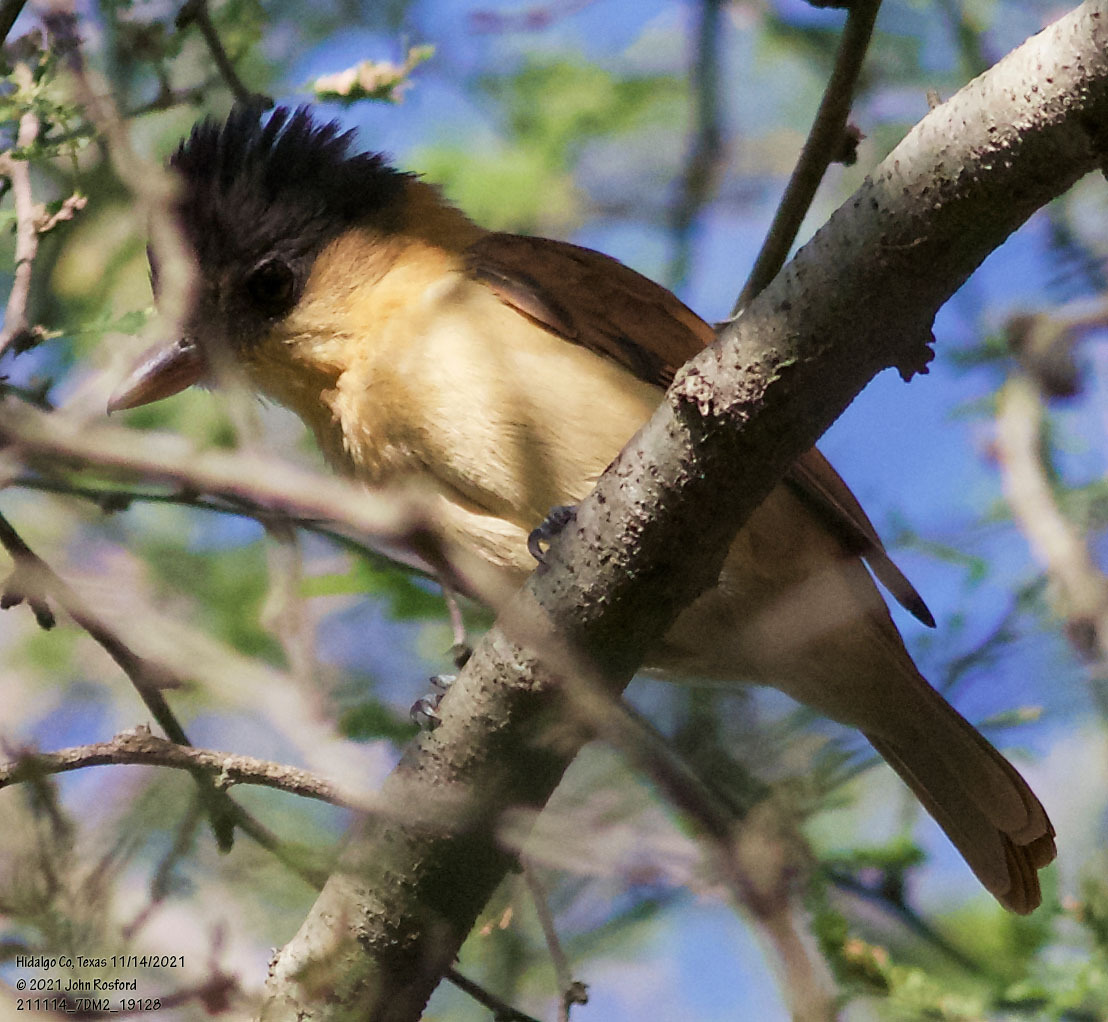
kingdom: Animalia
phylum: Chordata
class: Aves
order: Passeriformes
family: Cotingidae
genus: Pachyramphus
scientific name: Pachyramphus aglaiae
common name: Rose-throated becard
